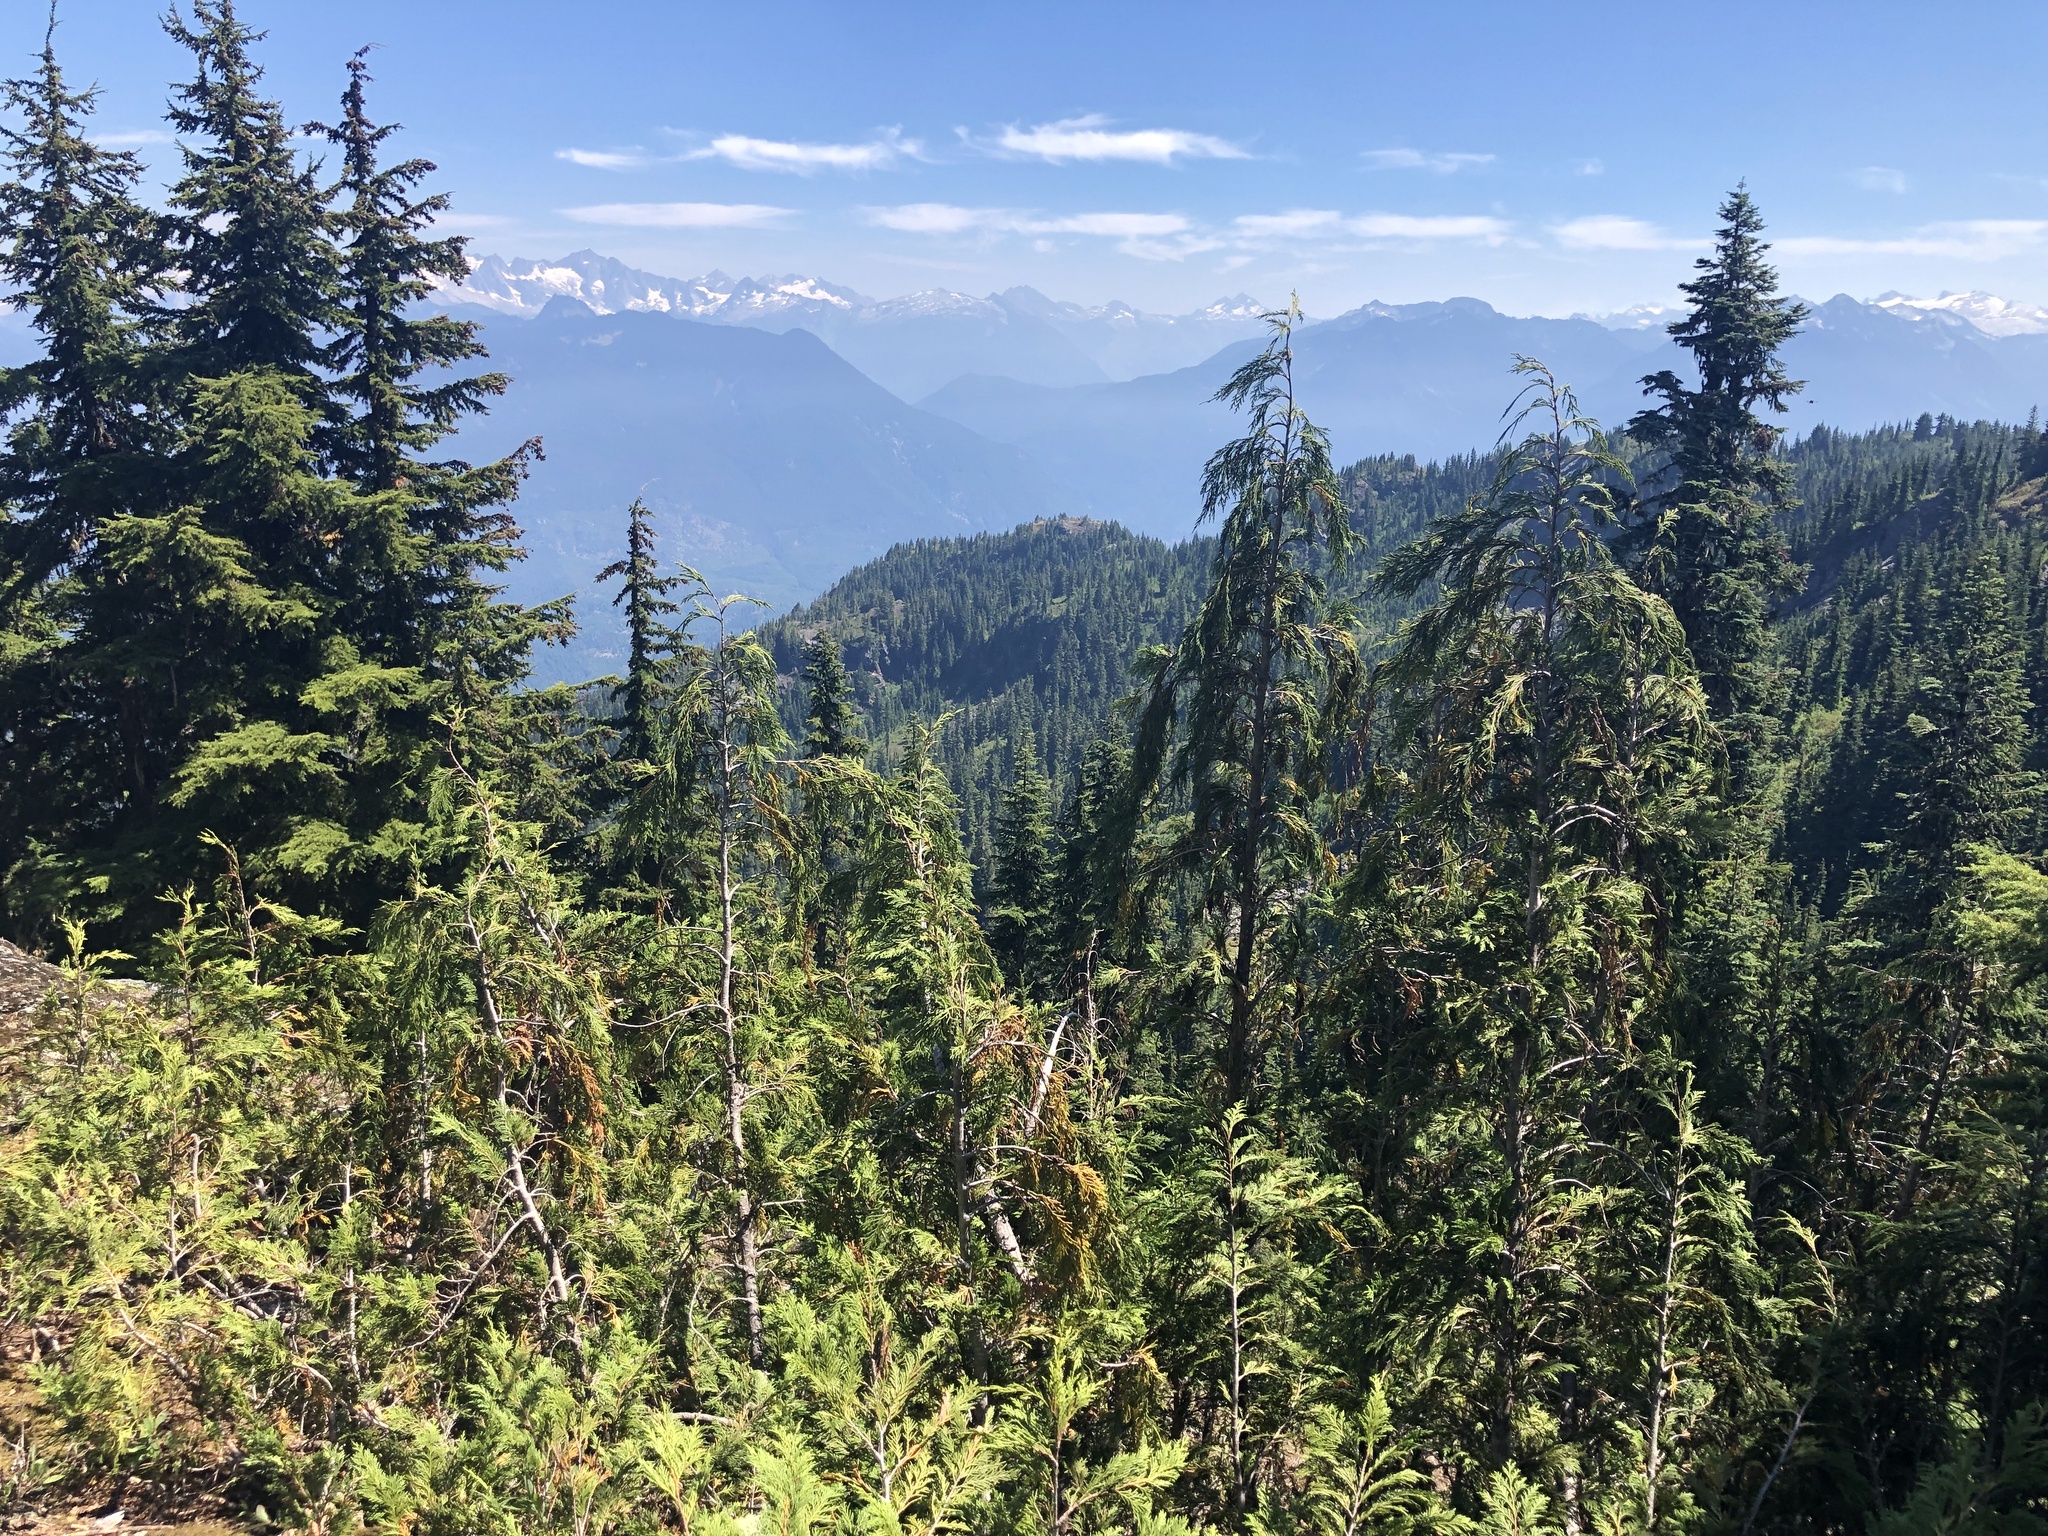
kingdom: Plantae
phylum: Tracheophyta
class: Pinopsida
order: Pinales
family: Cupressaceae
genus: Xanthocyparis
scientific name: Xanthocyparis nootkatensis
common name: Nootka cypress
